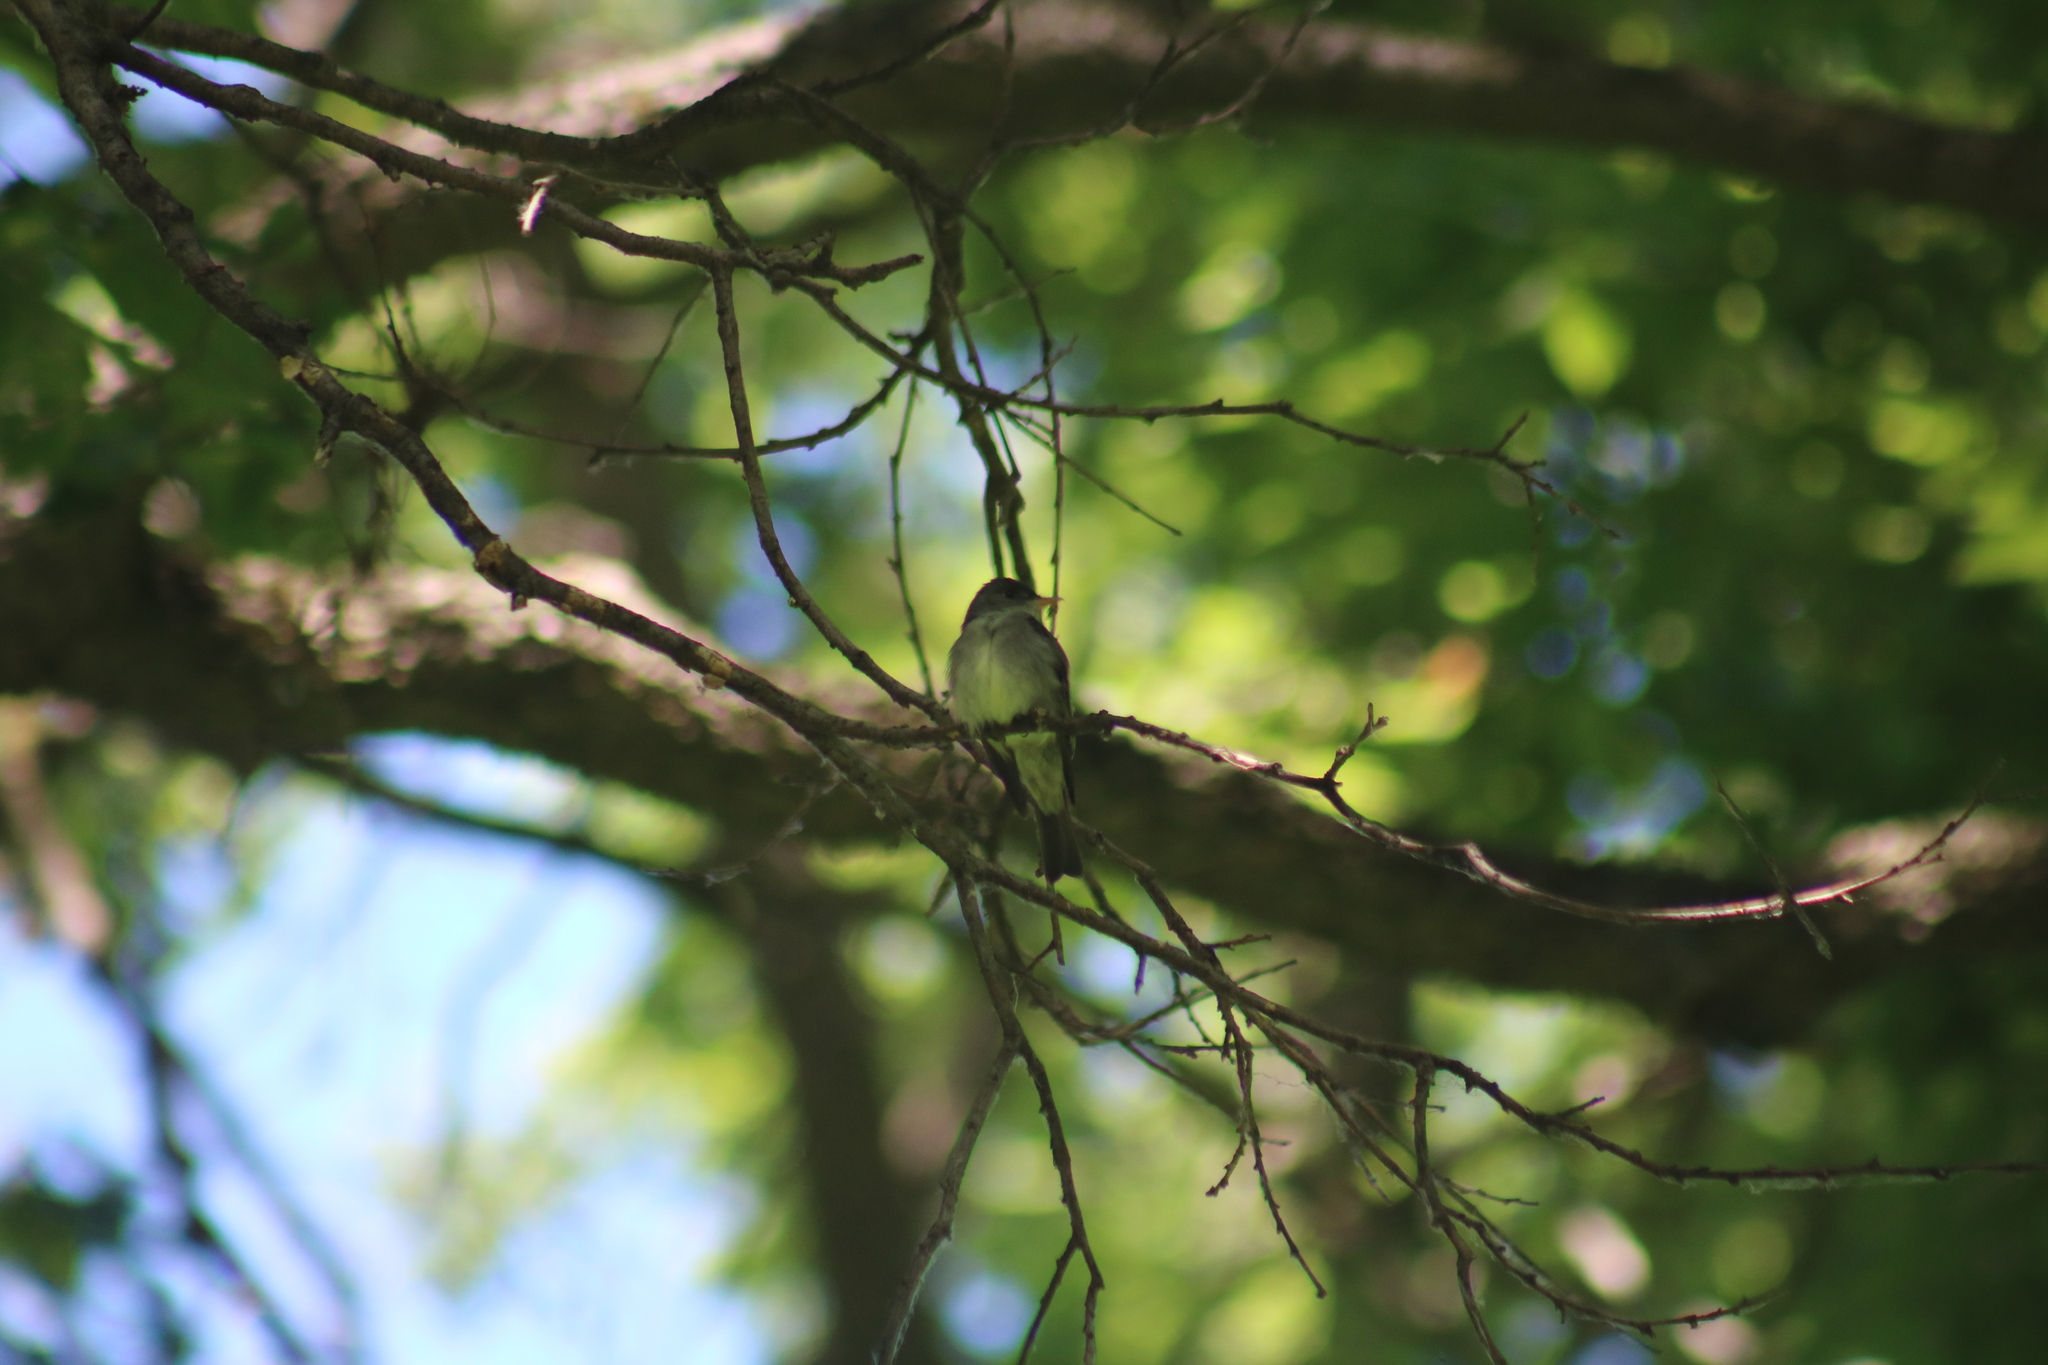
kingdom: Animalia
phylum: Chordata
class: Aves
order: Passeriformes
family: Tyrannidae
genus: Contopus
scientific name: Contopus virens
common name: Eastern wood-pewee
